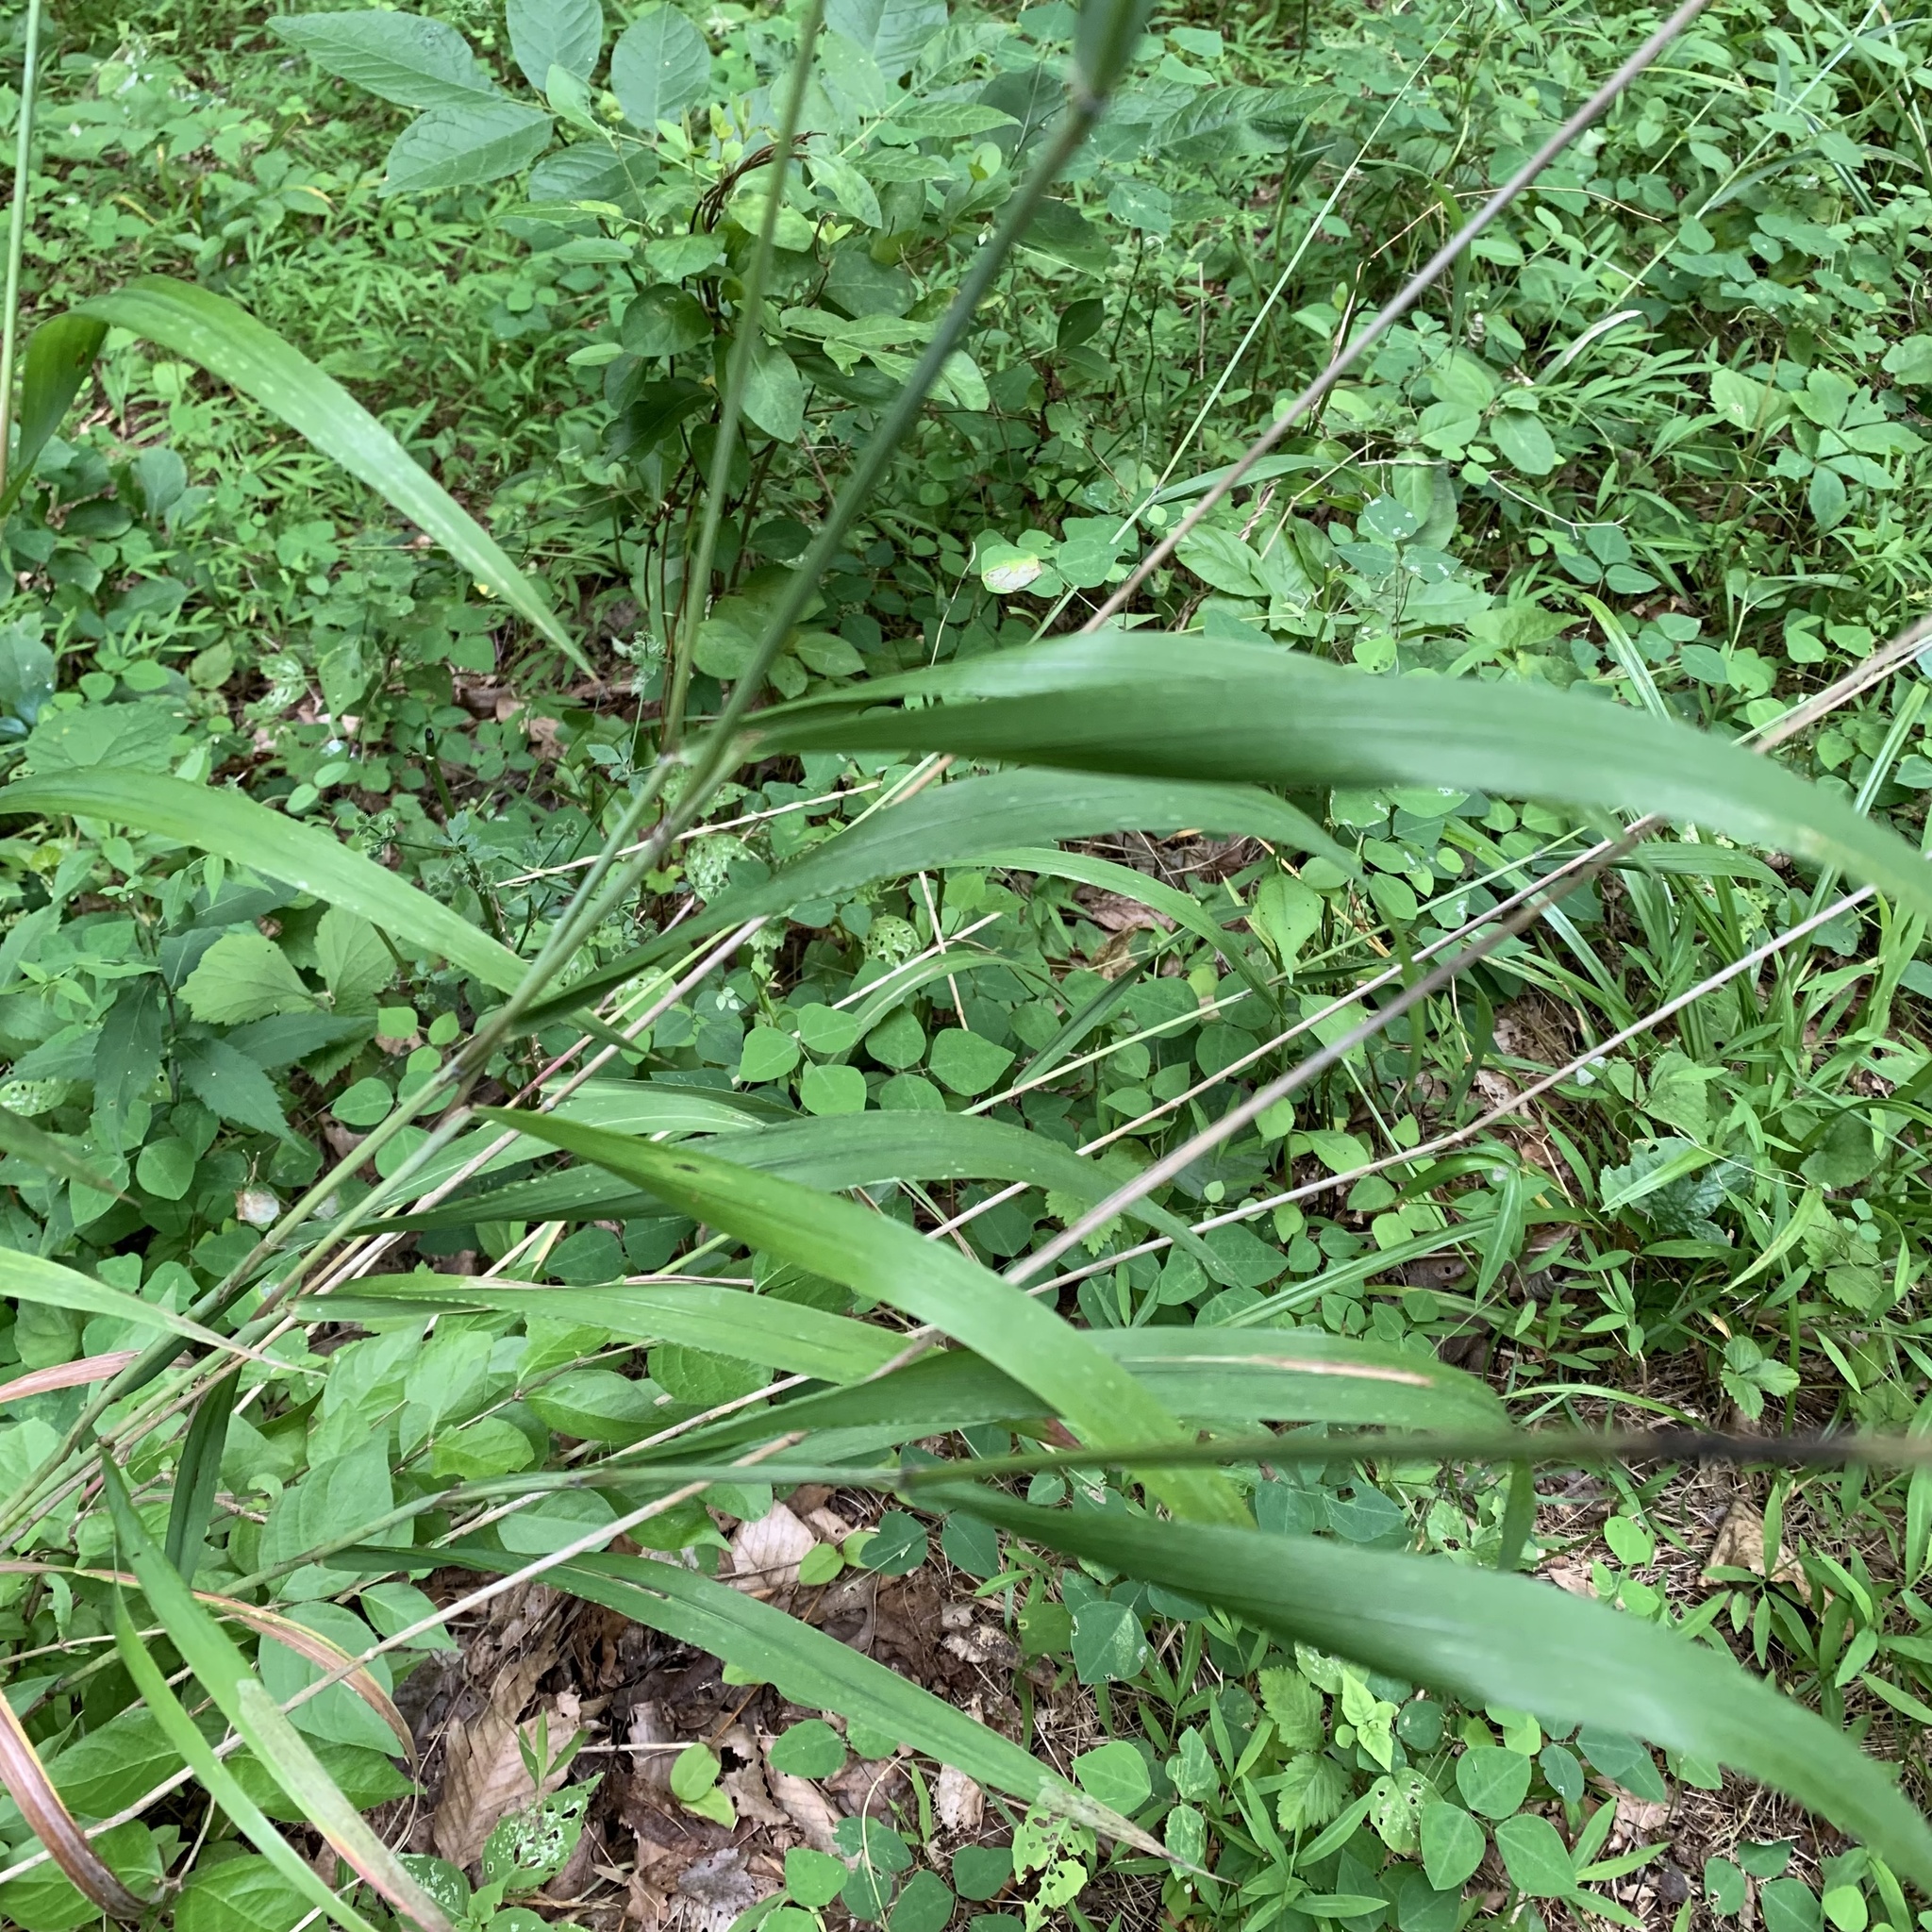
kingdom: Plantae
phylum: Tracheophyta
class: Liliopsida
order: Poales
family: Poaceae
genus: Elymus
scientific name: Elymus hystrix
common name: Bottlebrush grass
